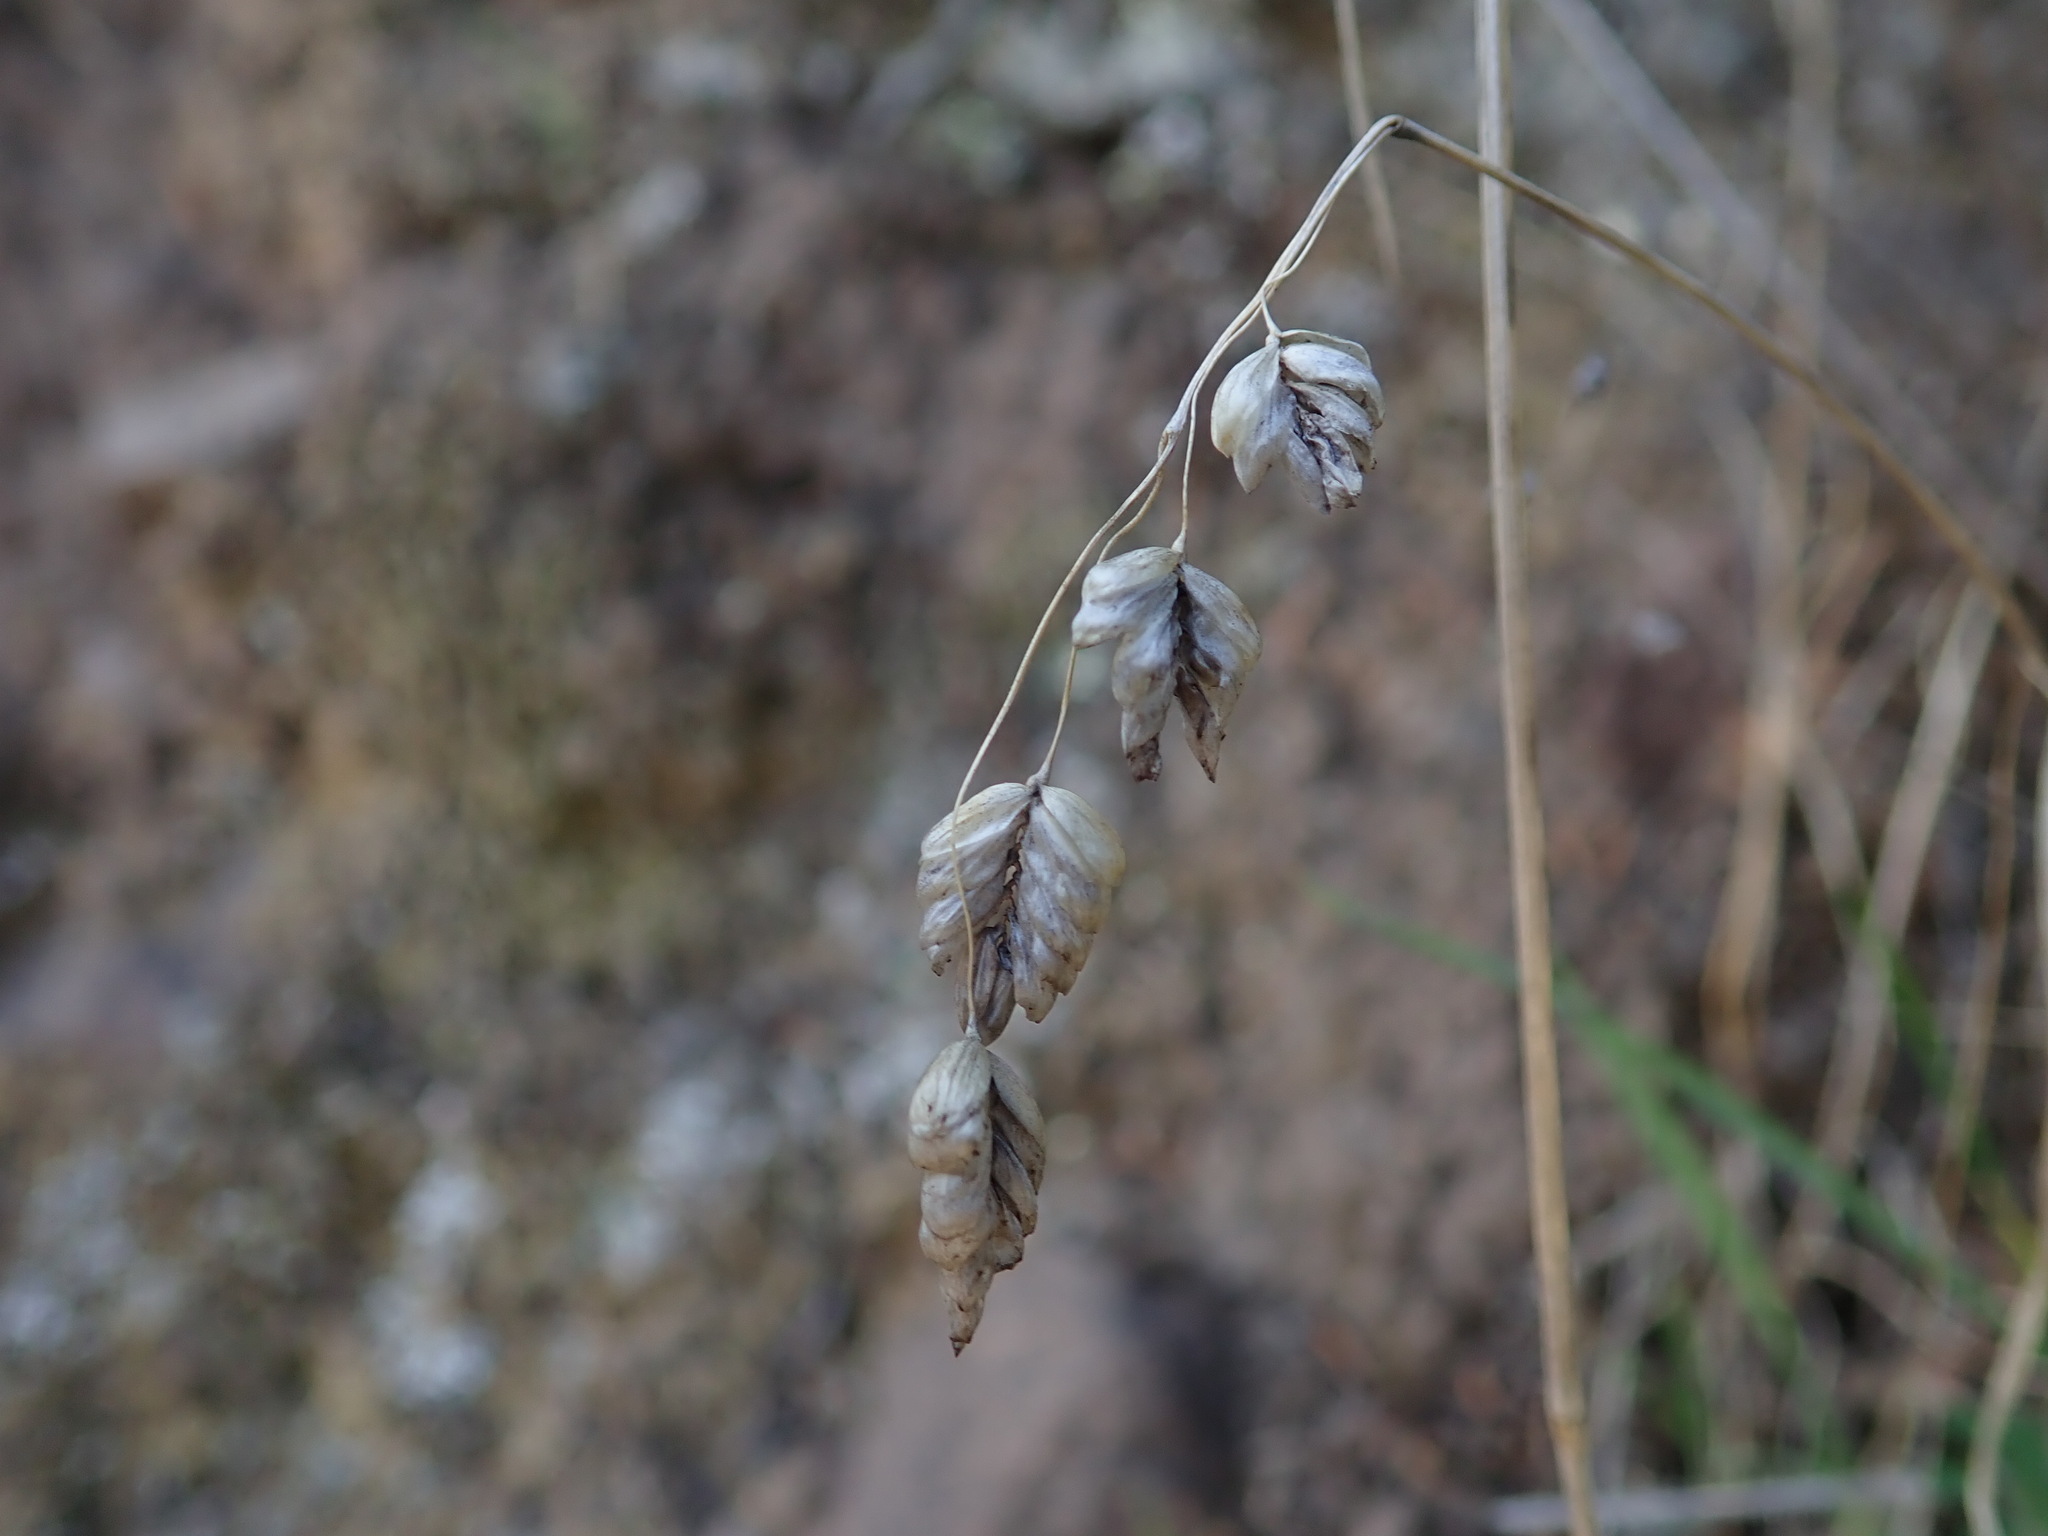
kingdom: Plantae
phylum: Tracheophyta
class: Liliopsida
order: Poales
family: Poaceae
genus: Briza
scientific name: Briza maxima
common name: Big quakinggrass
